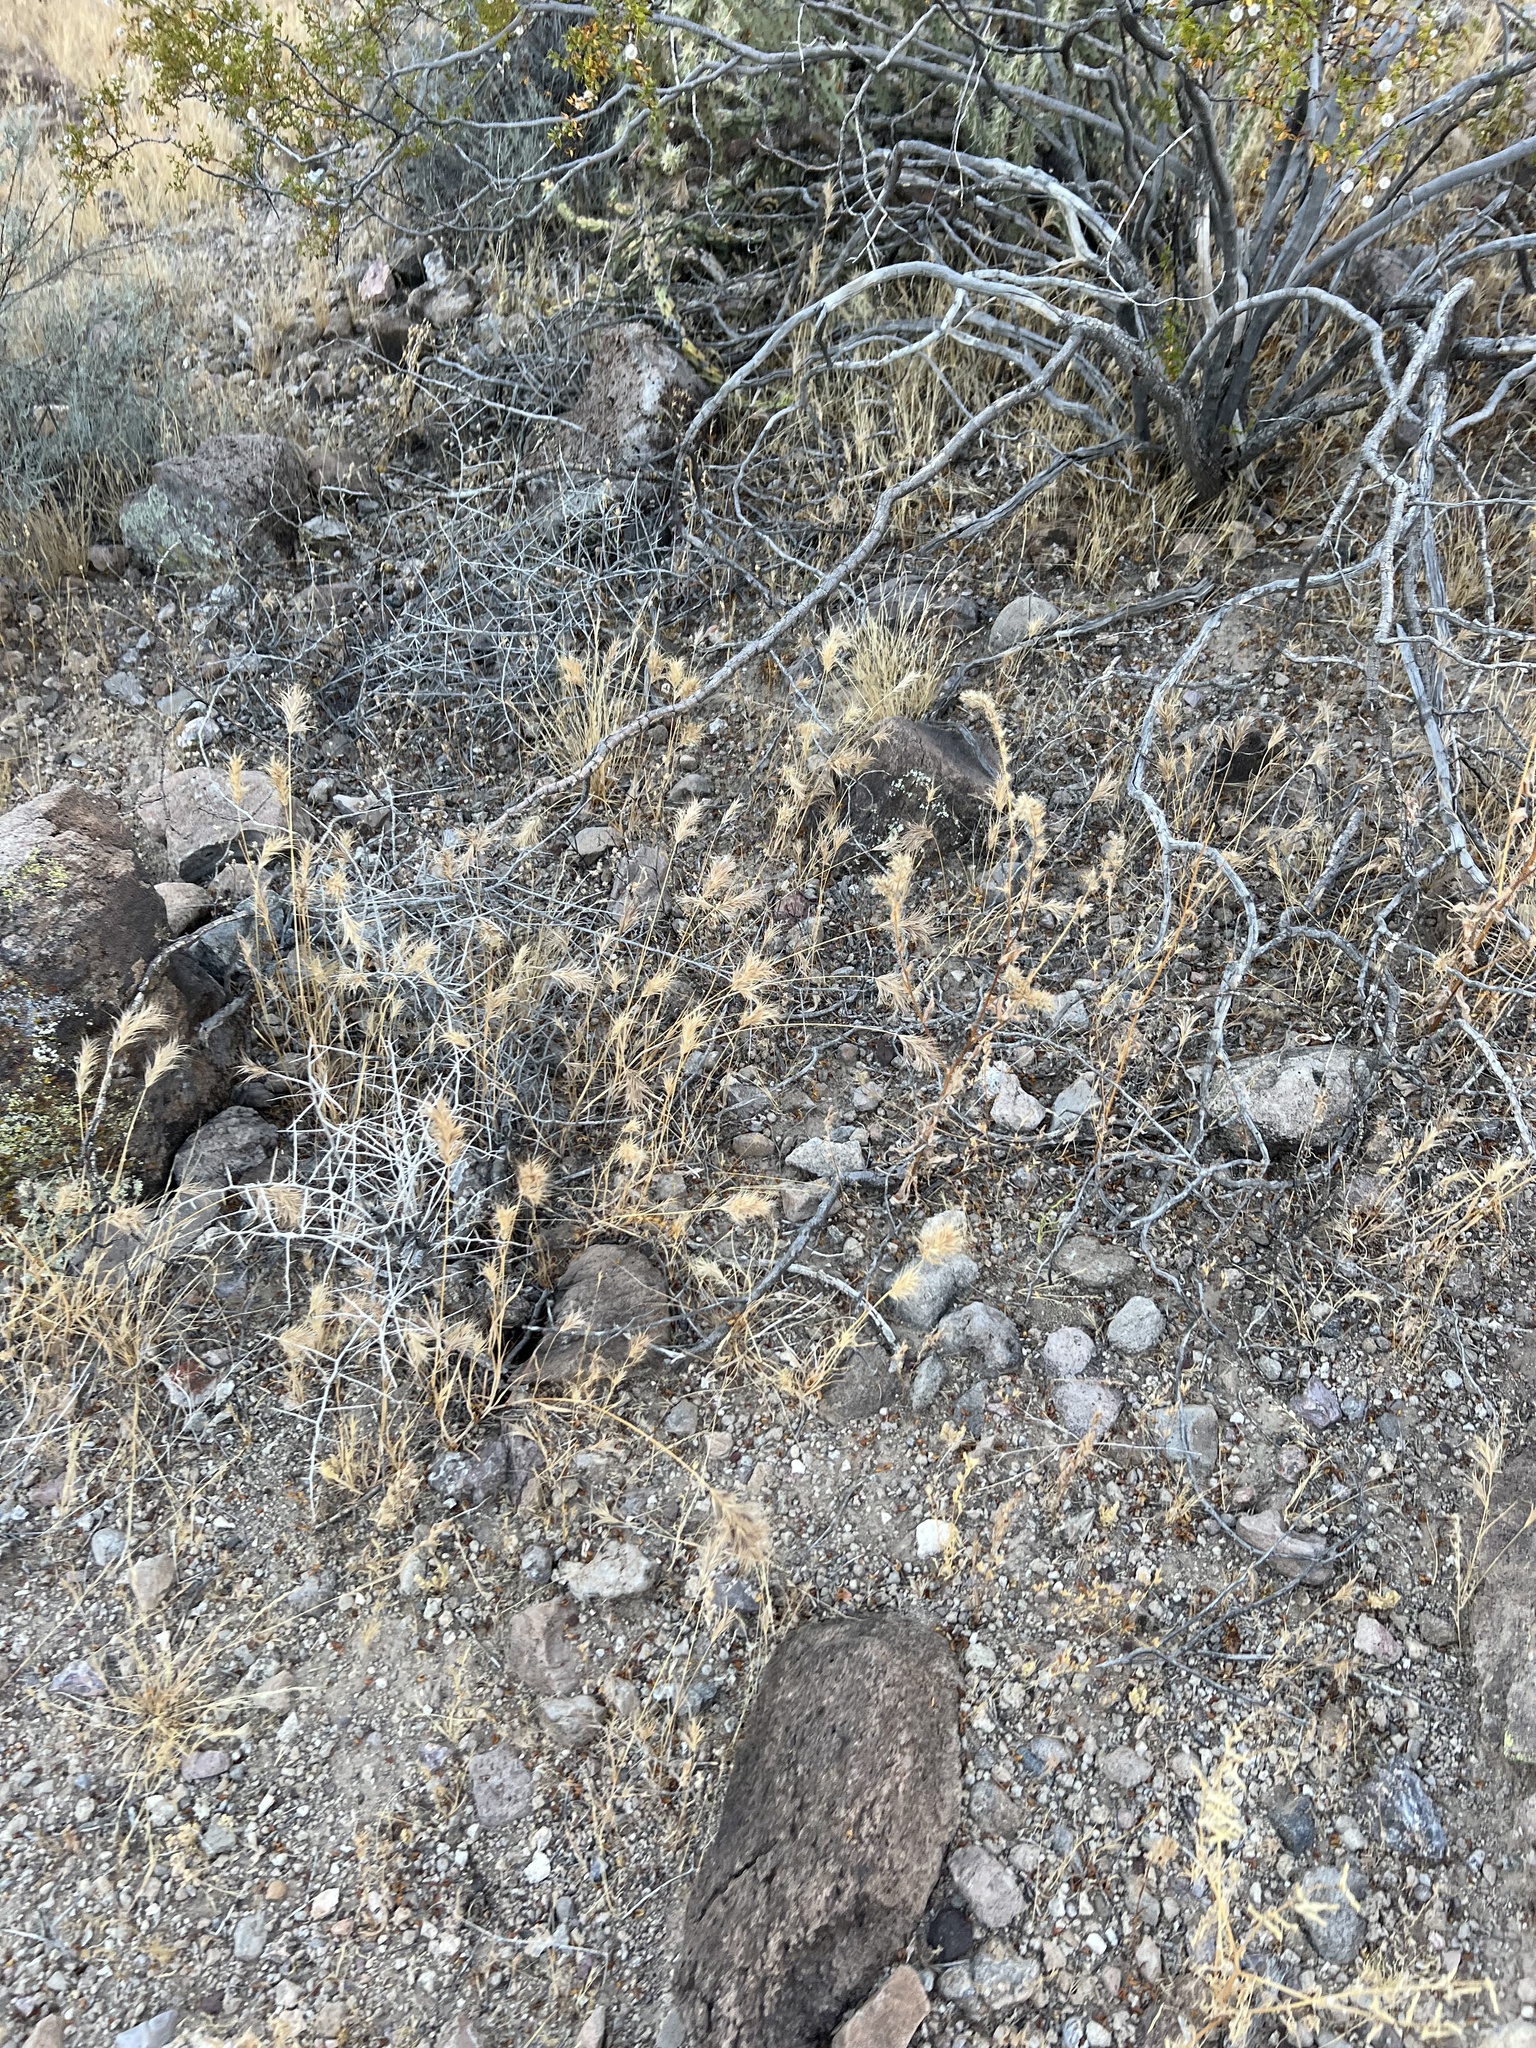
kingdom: Plantae
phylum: Tracheophyta
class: Liliopsida
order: Poales
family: Poaceae
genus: Bromus
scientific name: Bromus rubens
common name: Red brome
